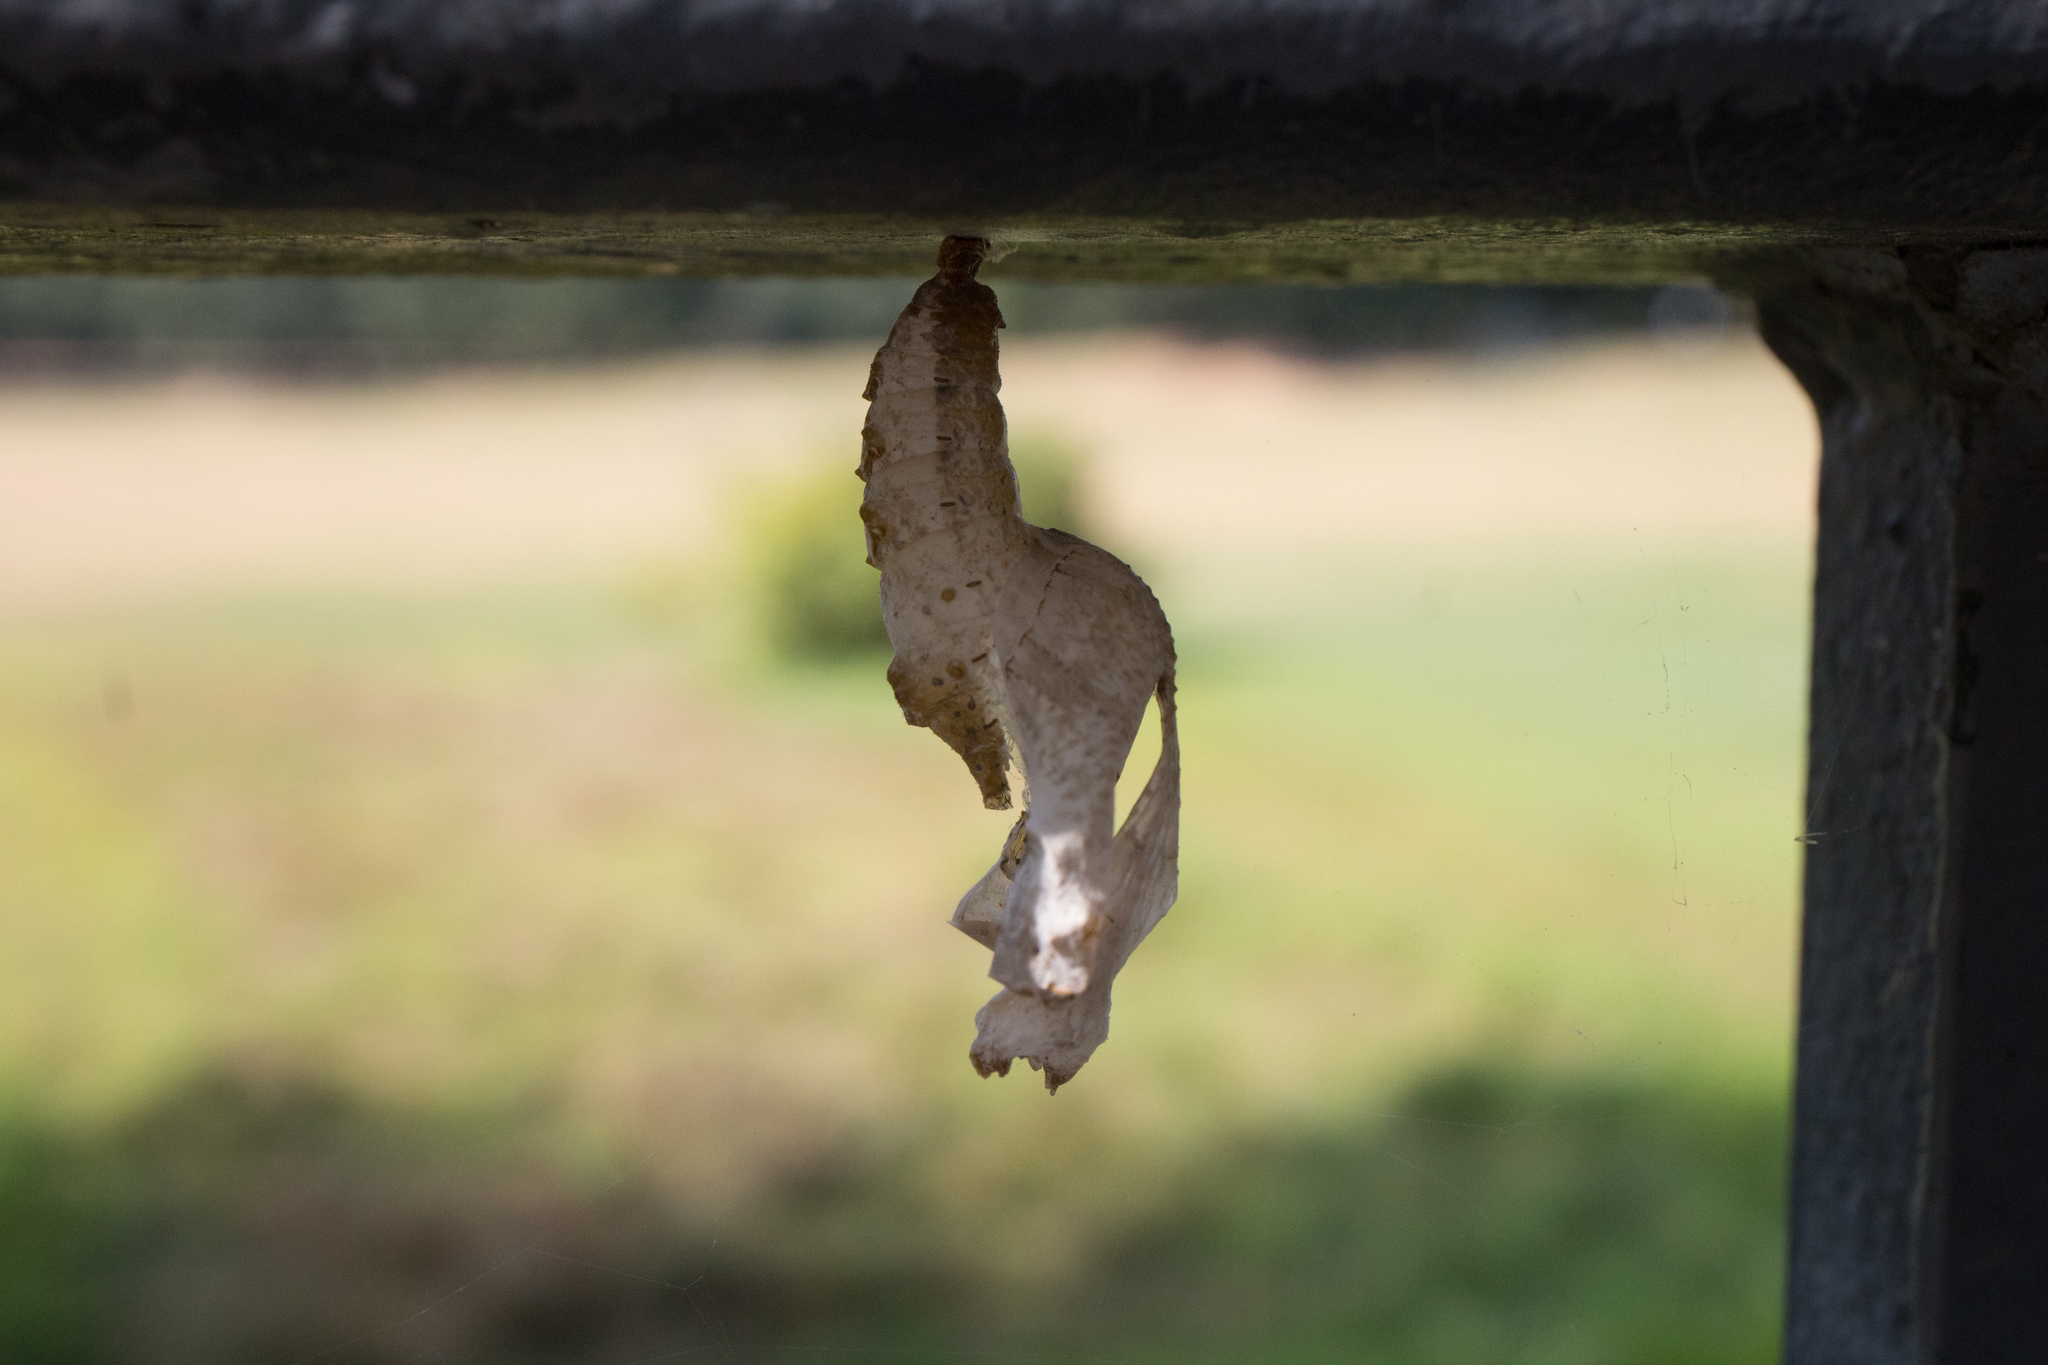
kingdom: Animalia
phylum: Arthropoda
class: Insecta
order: Lepidoptera
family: Nymphalidae
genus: Dione
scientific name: Dione vanillae
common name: Gulf fritillary
